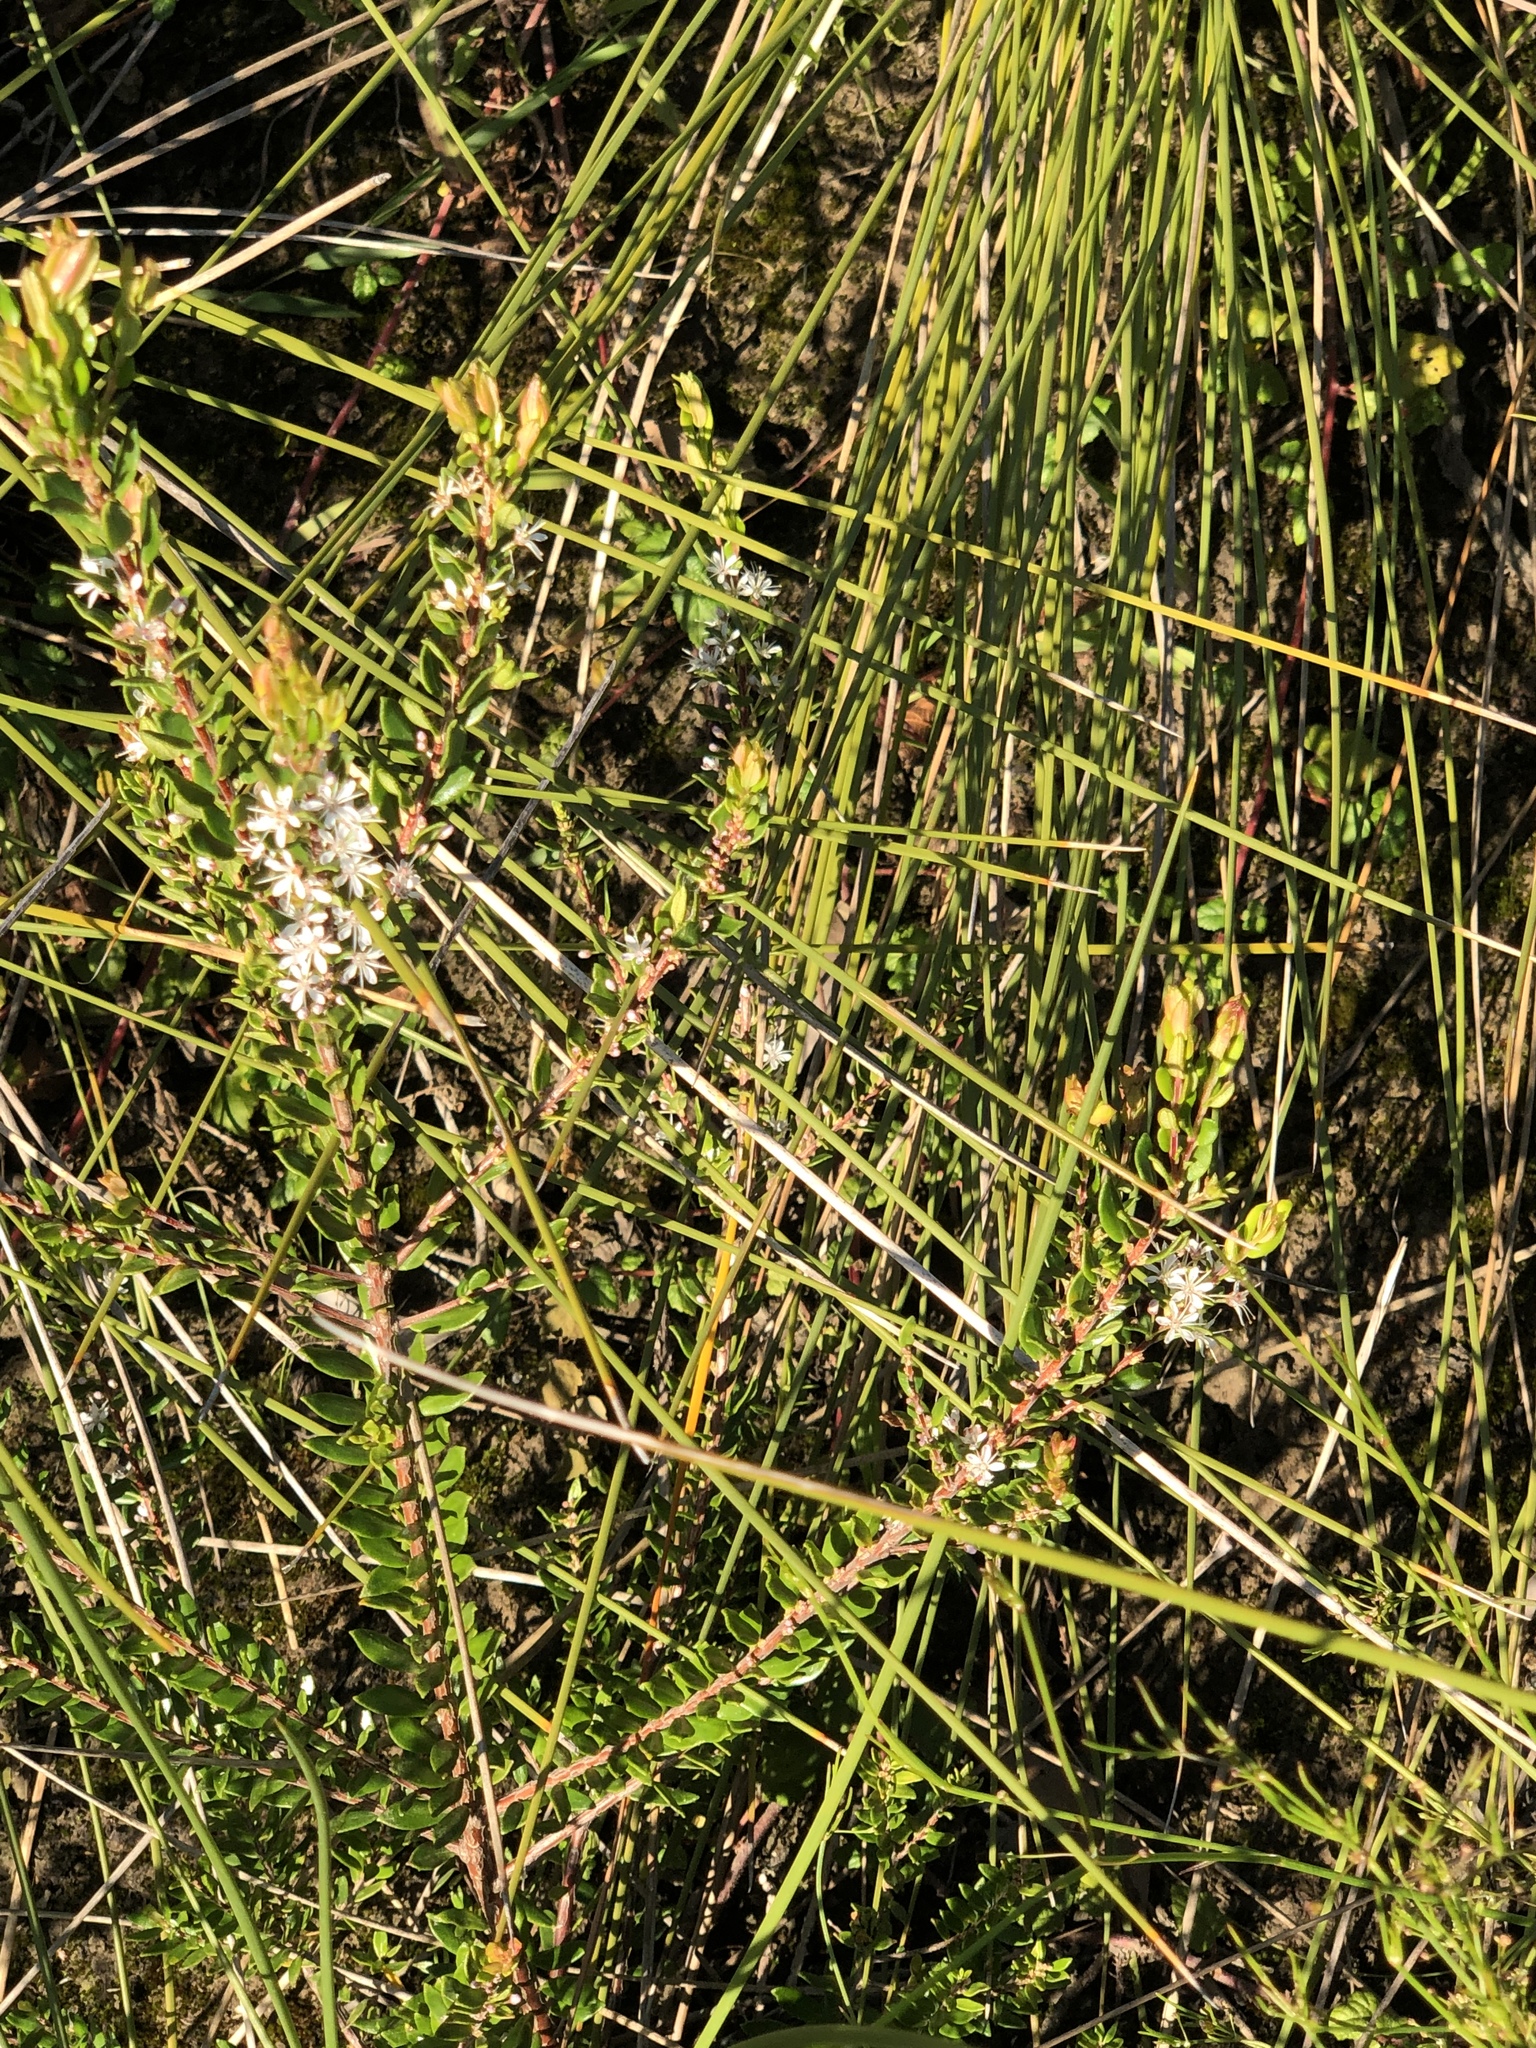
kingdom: Plantae
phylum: Tracheophyta
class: Magnoliopsida
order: Sapindales
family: Rutaceae
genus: Agathosma
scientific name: Agathosma ovata
